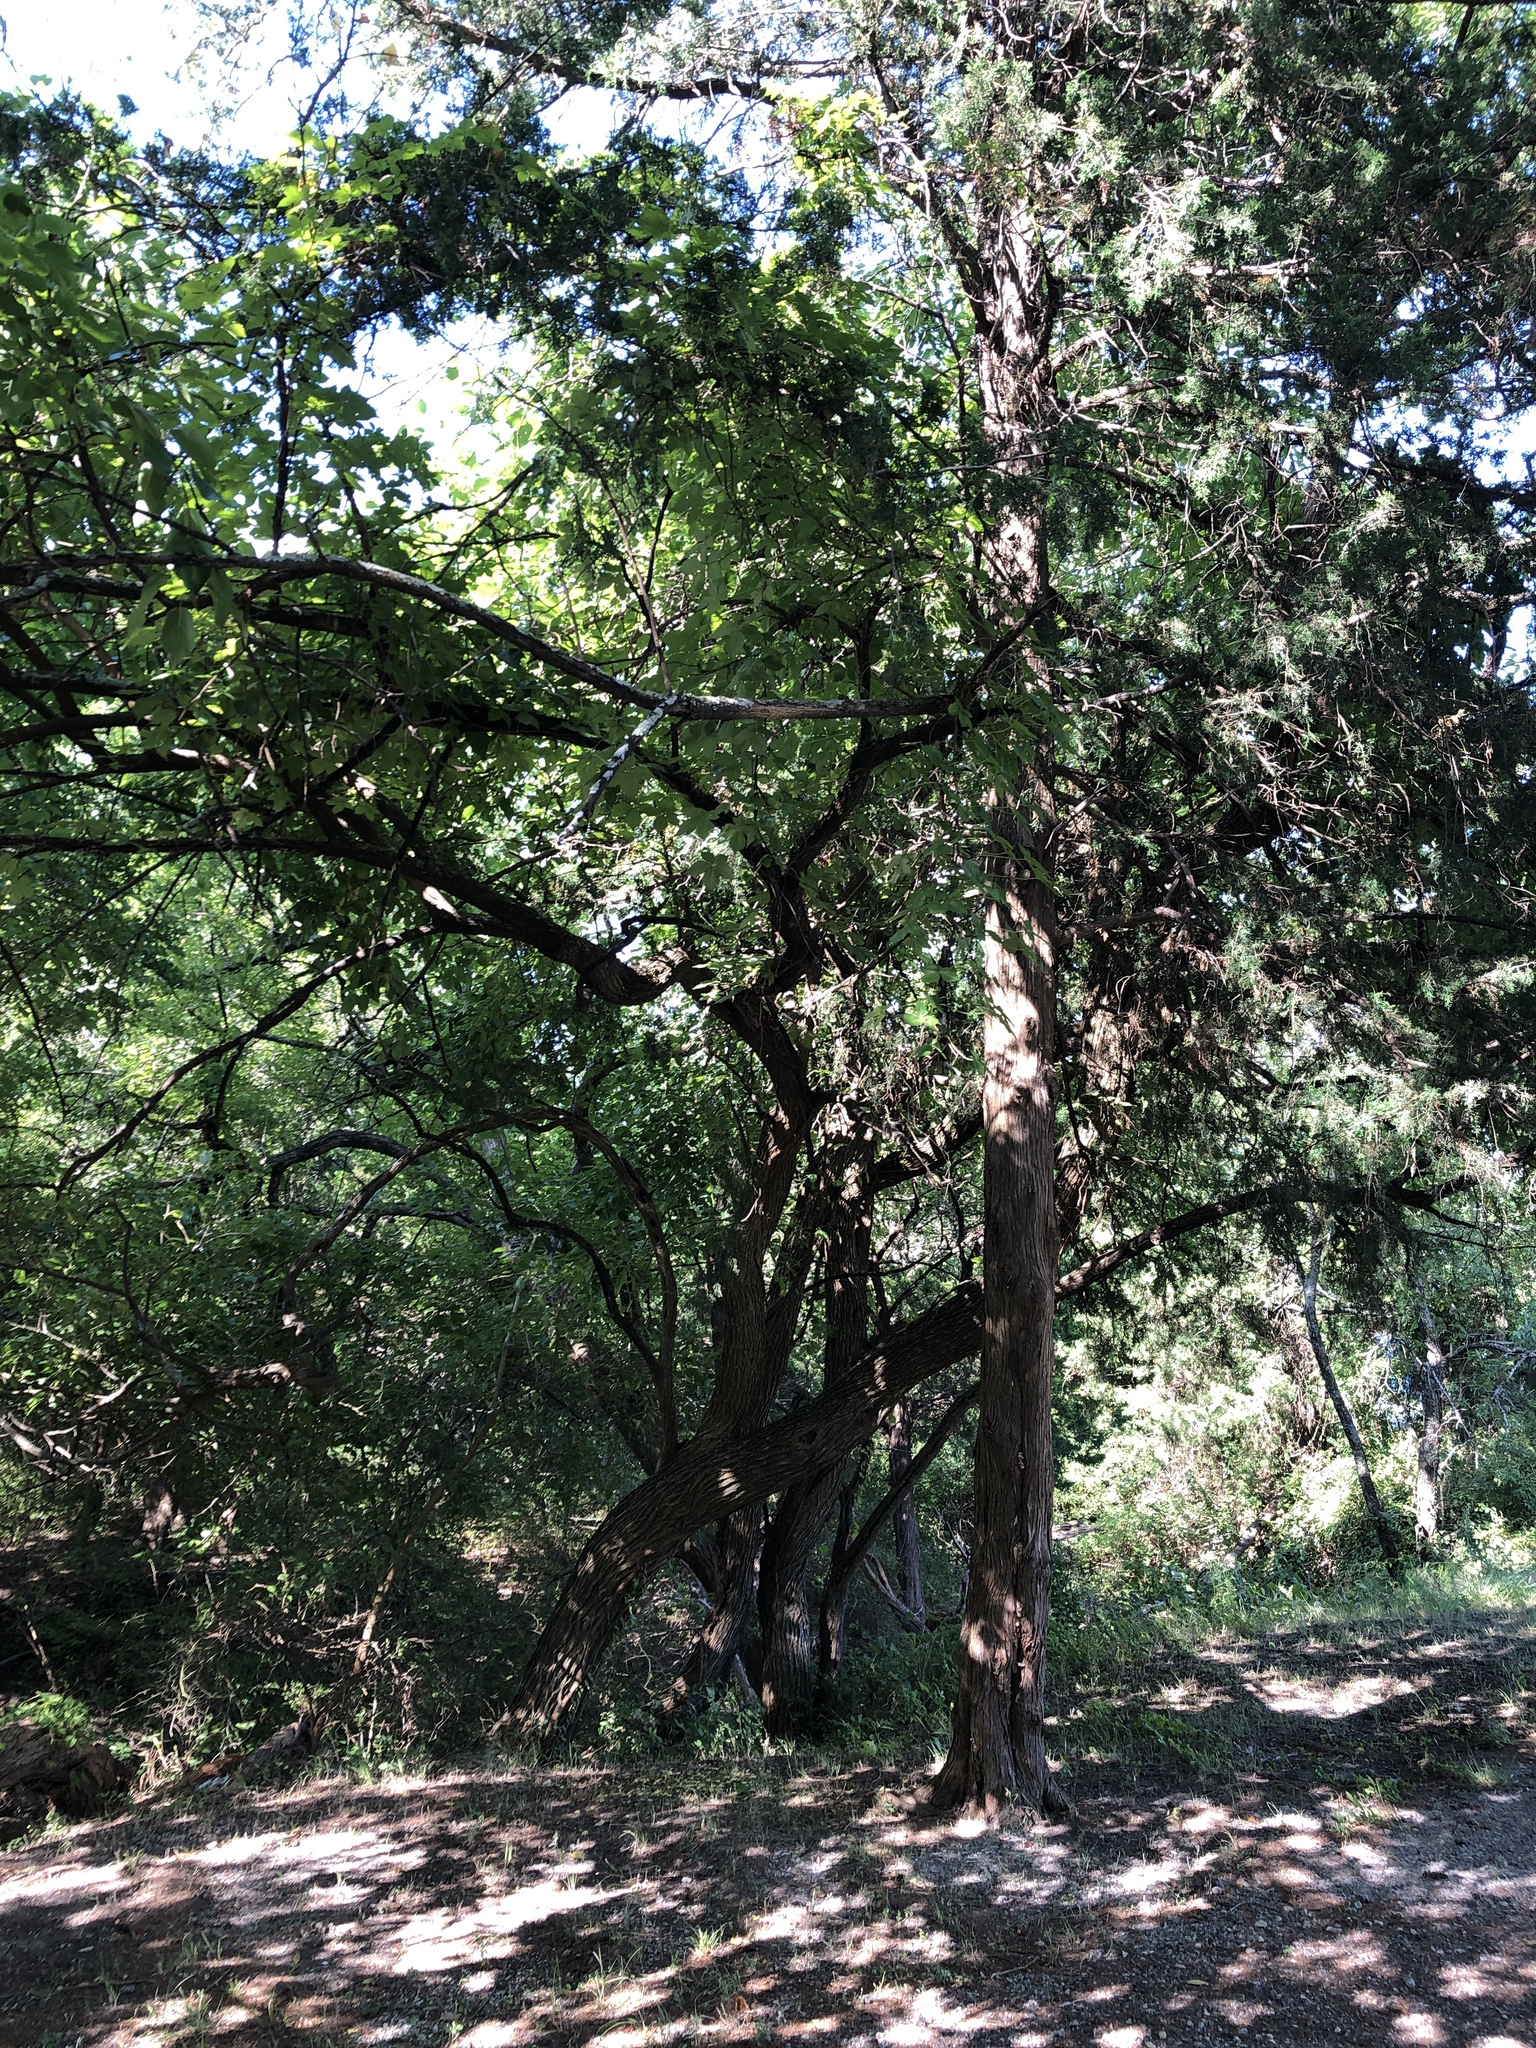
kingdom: Plantae
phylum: Tracheophyta
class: Magnoliopsida
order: Rosales
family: Moraceae
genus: Maclura
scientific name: Maclura pomifera
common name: Osage-orange
